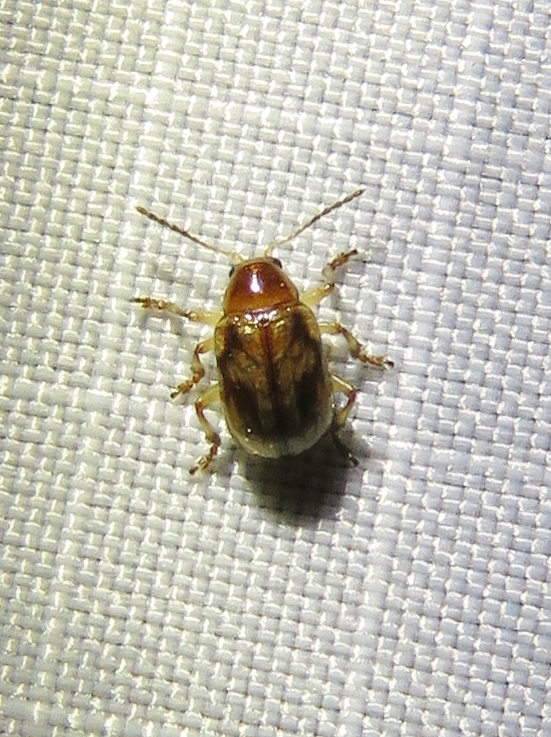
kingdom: Animalia
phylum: Arthropoda
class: Insecta
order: Coleoptera
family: Chrysomelidae
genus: Paria
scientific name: Paria quadriguttata
